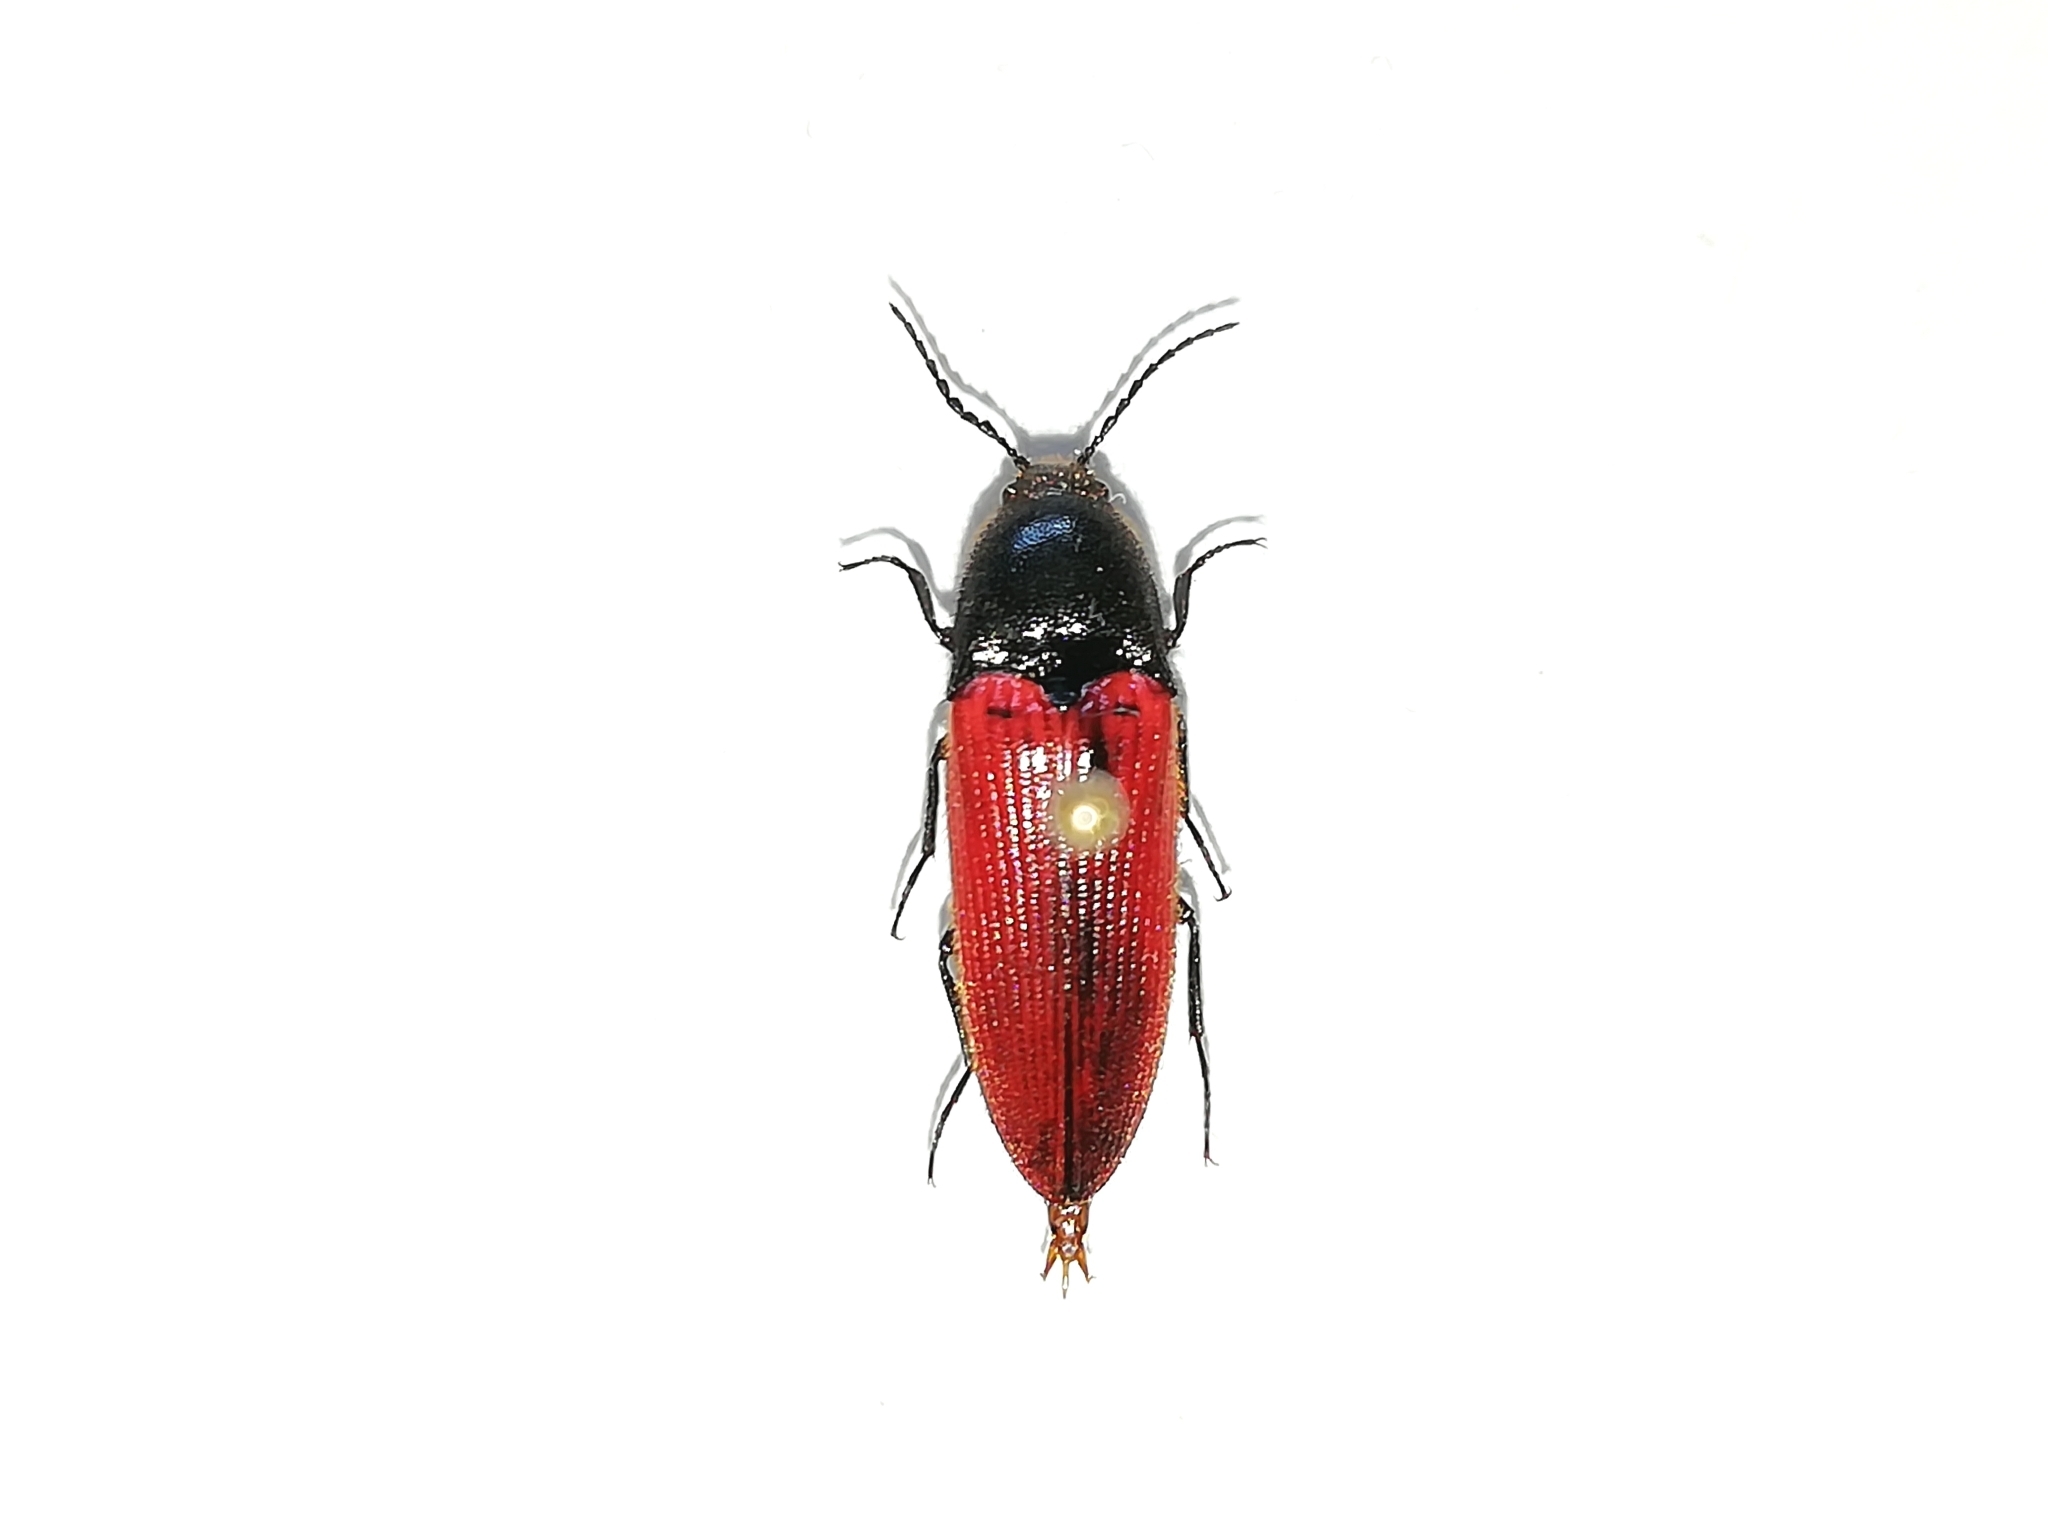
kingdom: Animalia
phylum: Arthropoda
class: Insecta
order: Coleoptera
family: Elateridae
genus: Ampedus
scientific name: Ampedus sanguineus
